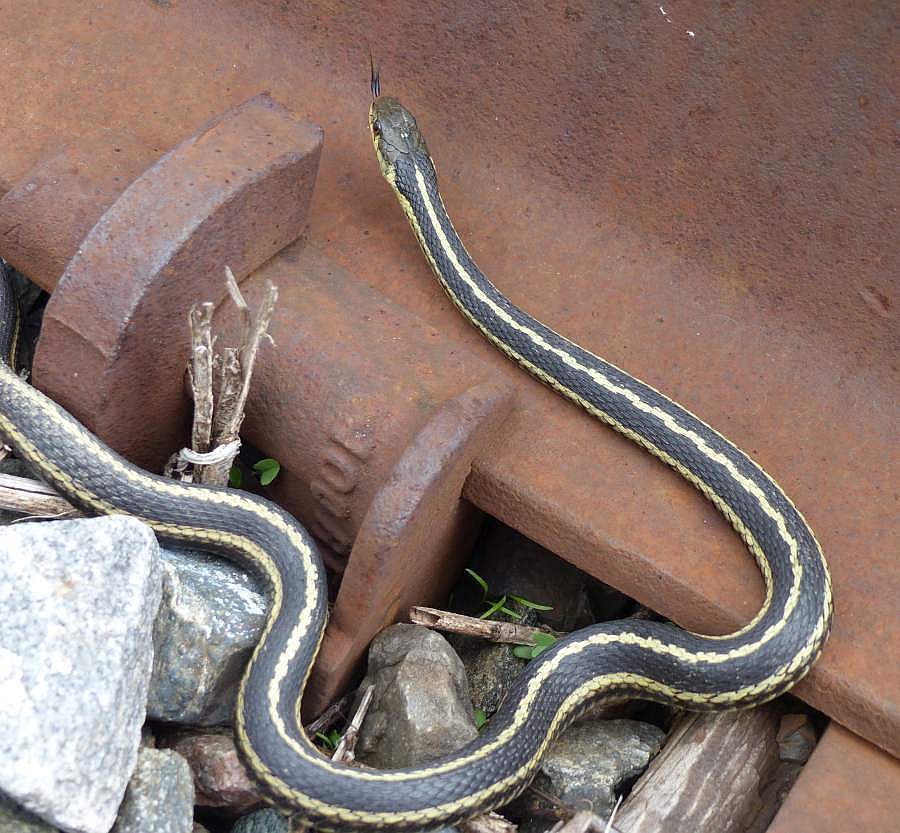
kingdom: Animalia
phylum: Chordata
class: Squamata
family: Colubridae
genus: Thamnophis
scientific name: Thamnophis sirtalis
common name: Common garter snake
